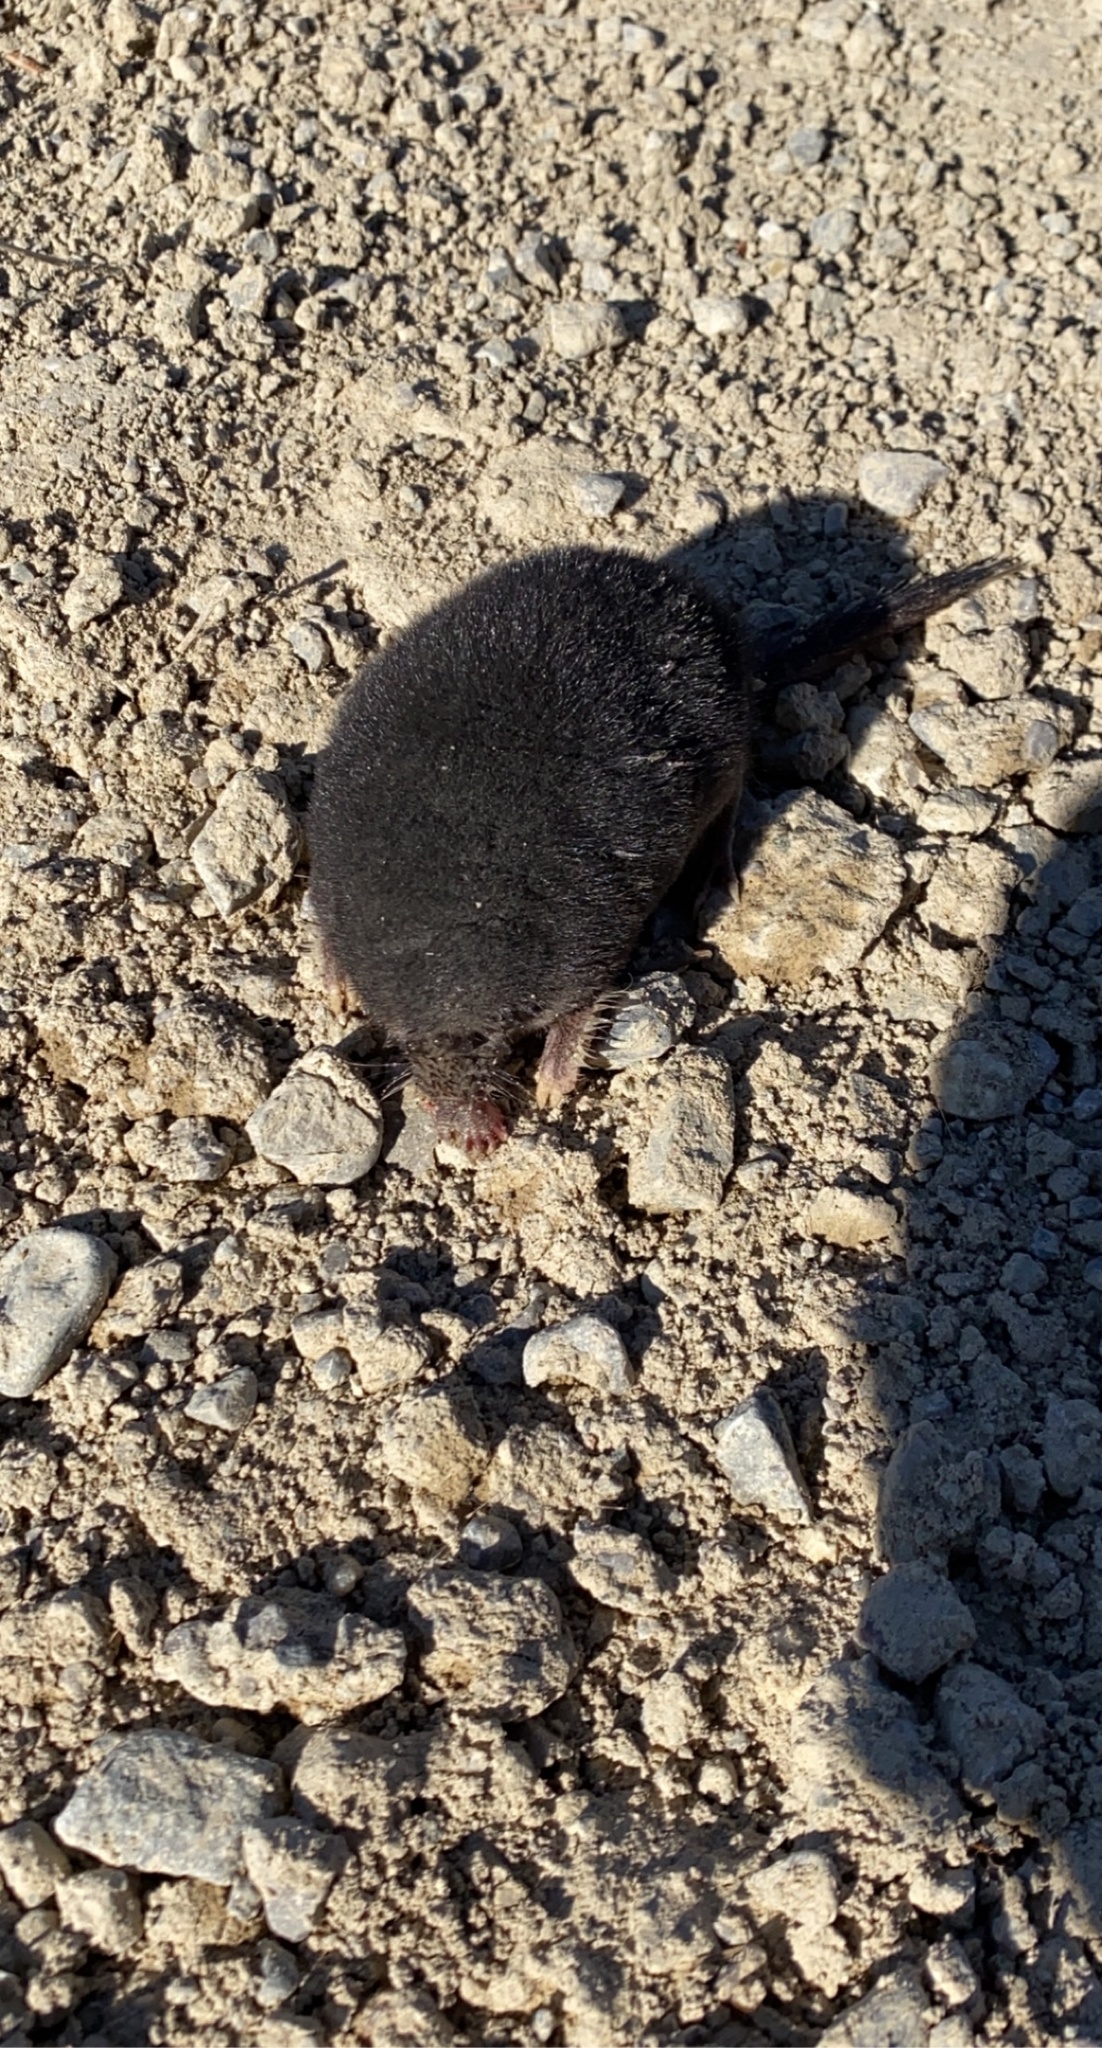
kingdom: Animalia
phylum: Chordata
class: Mammalia
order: Soricomorpha
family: Talpidae
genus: Condylura
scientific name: Condylura cristata
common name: Star-nosed mole
